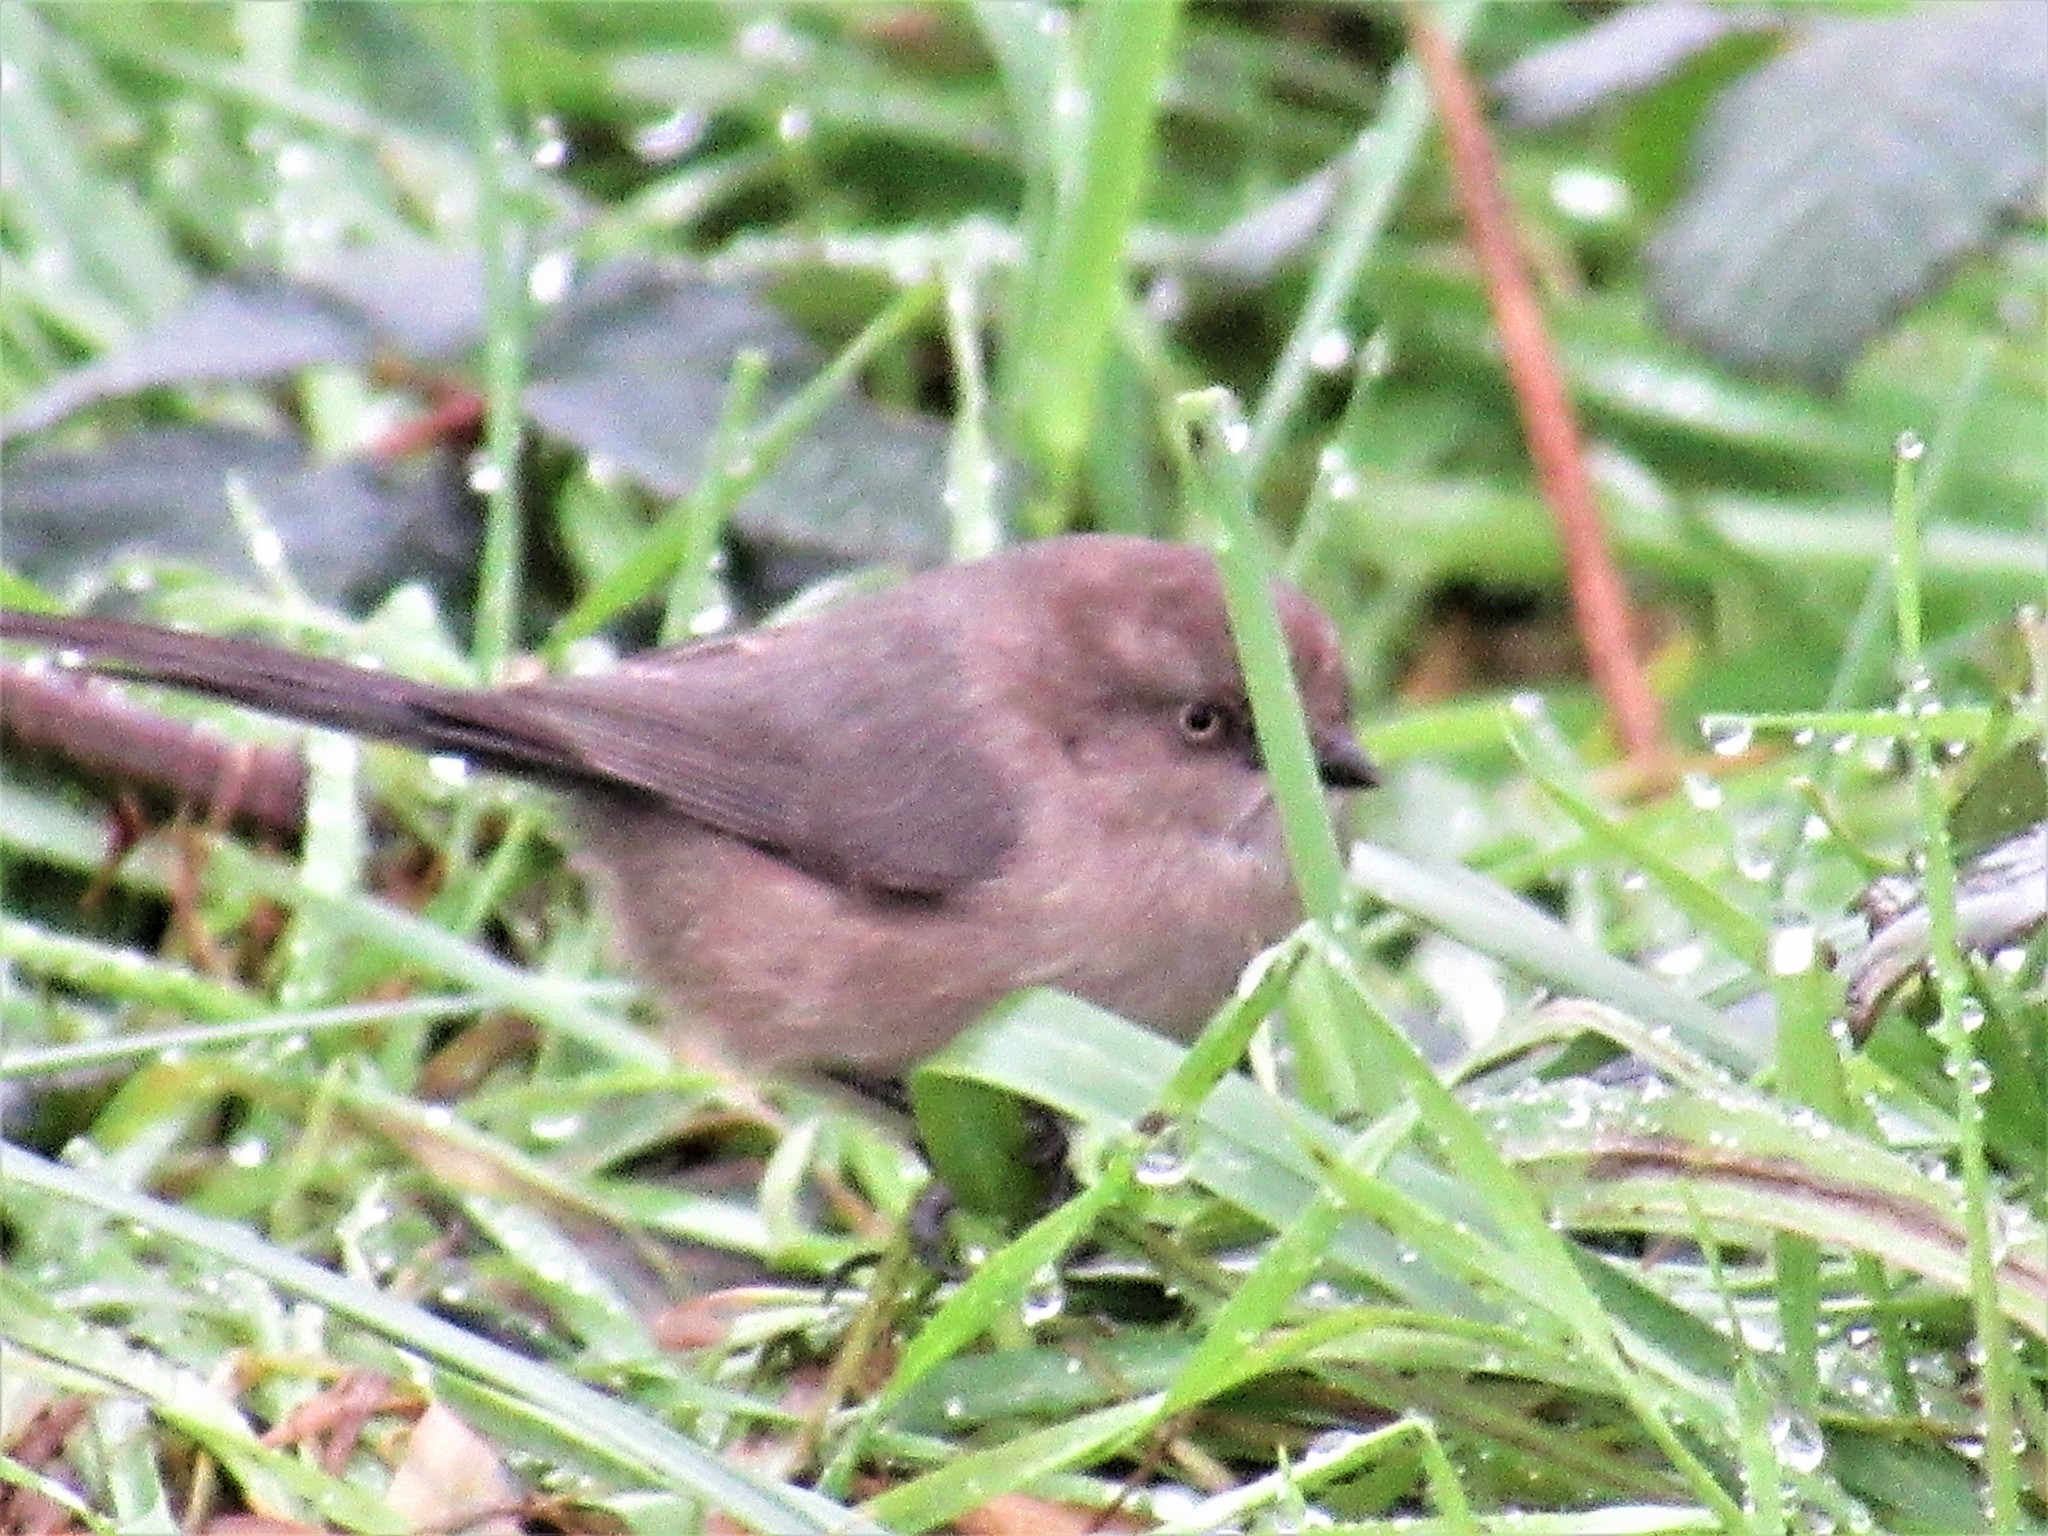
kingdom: Animalia
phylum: Chordata
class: Aves
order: Passeriformes
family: Aegithalidae
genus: Psaltriparus
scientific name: Psaltriparus minimus
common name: American bushtit
